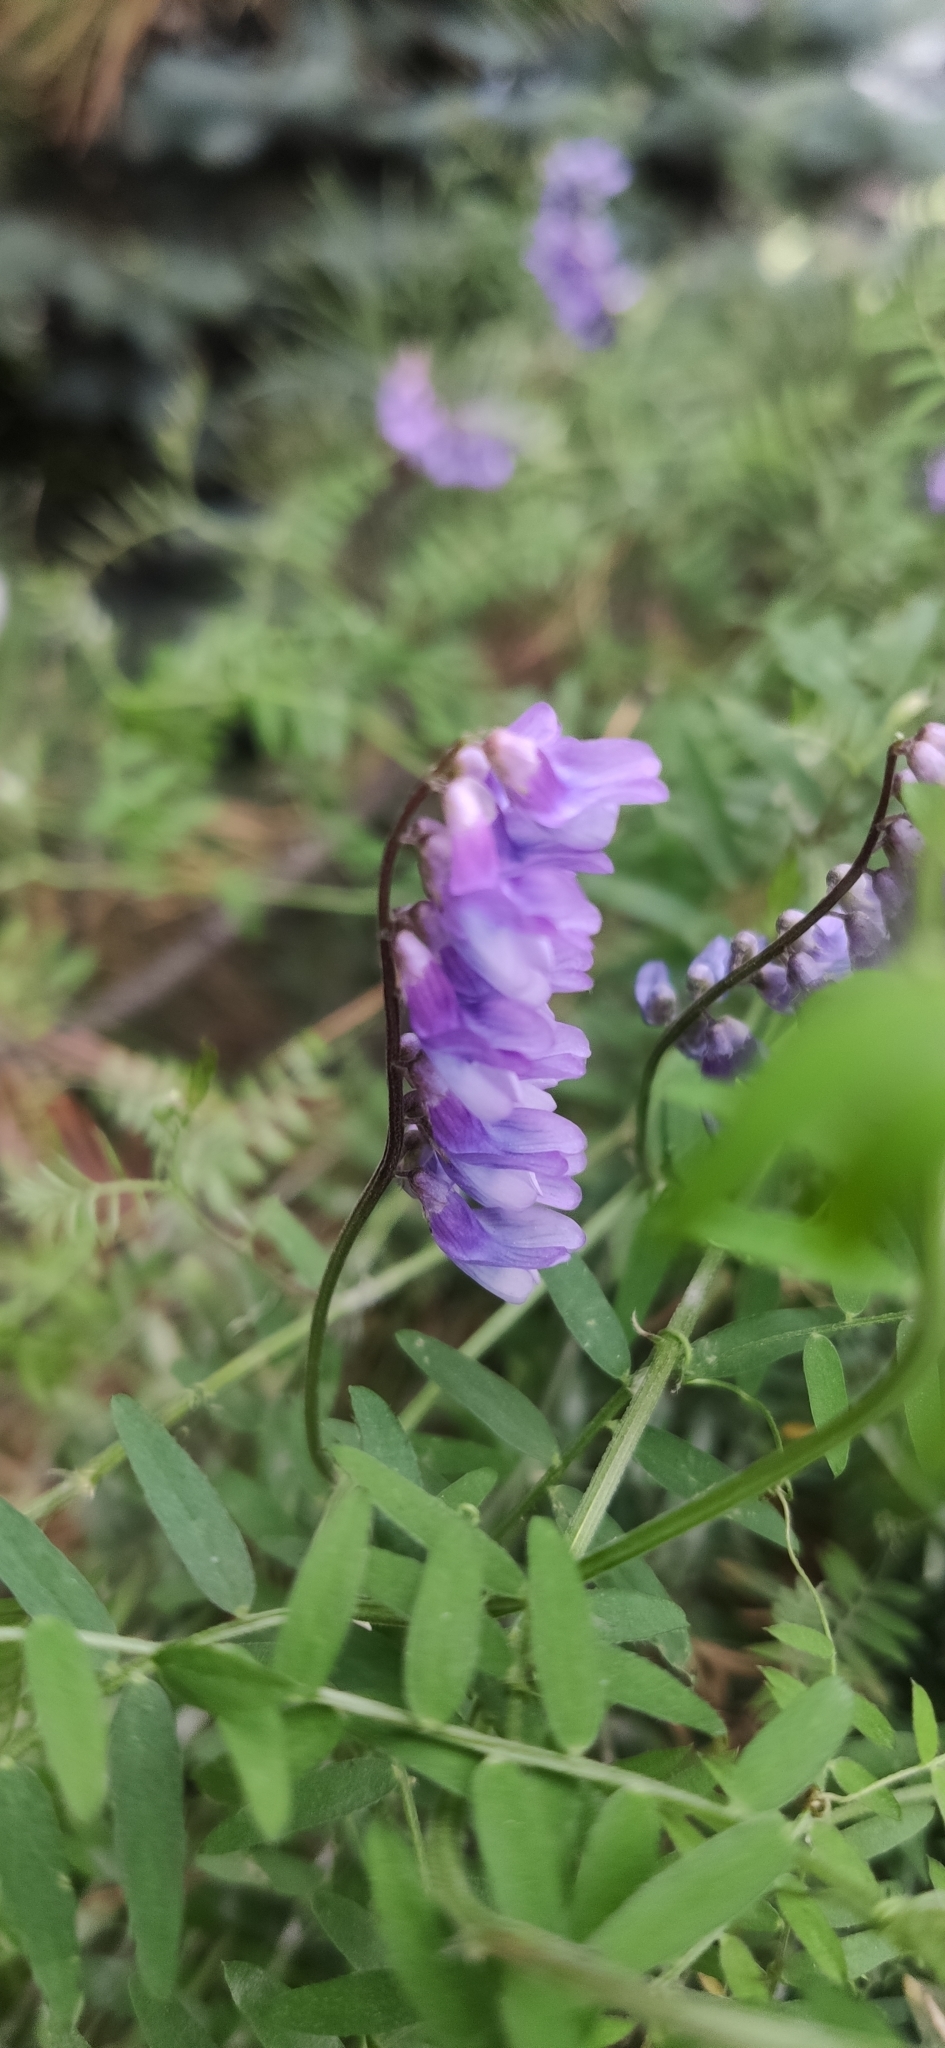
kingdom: Plantae
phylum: Tracheophyta
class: Magnoliopsida
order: Fabales
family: Fabaceae
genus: Vicia
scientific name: Vicia cracca
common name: Bird vetch
